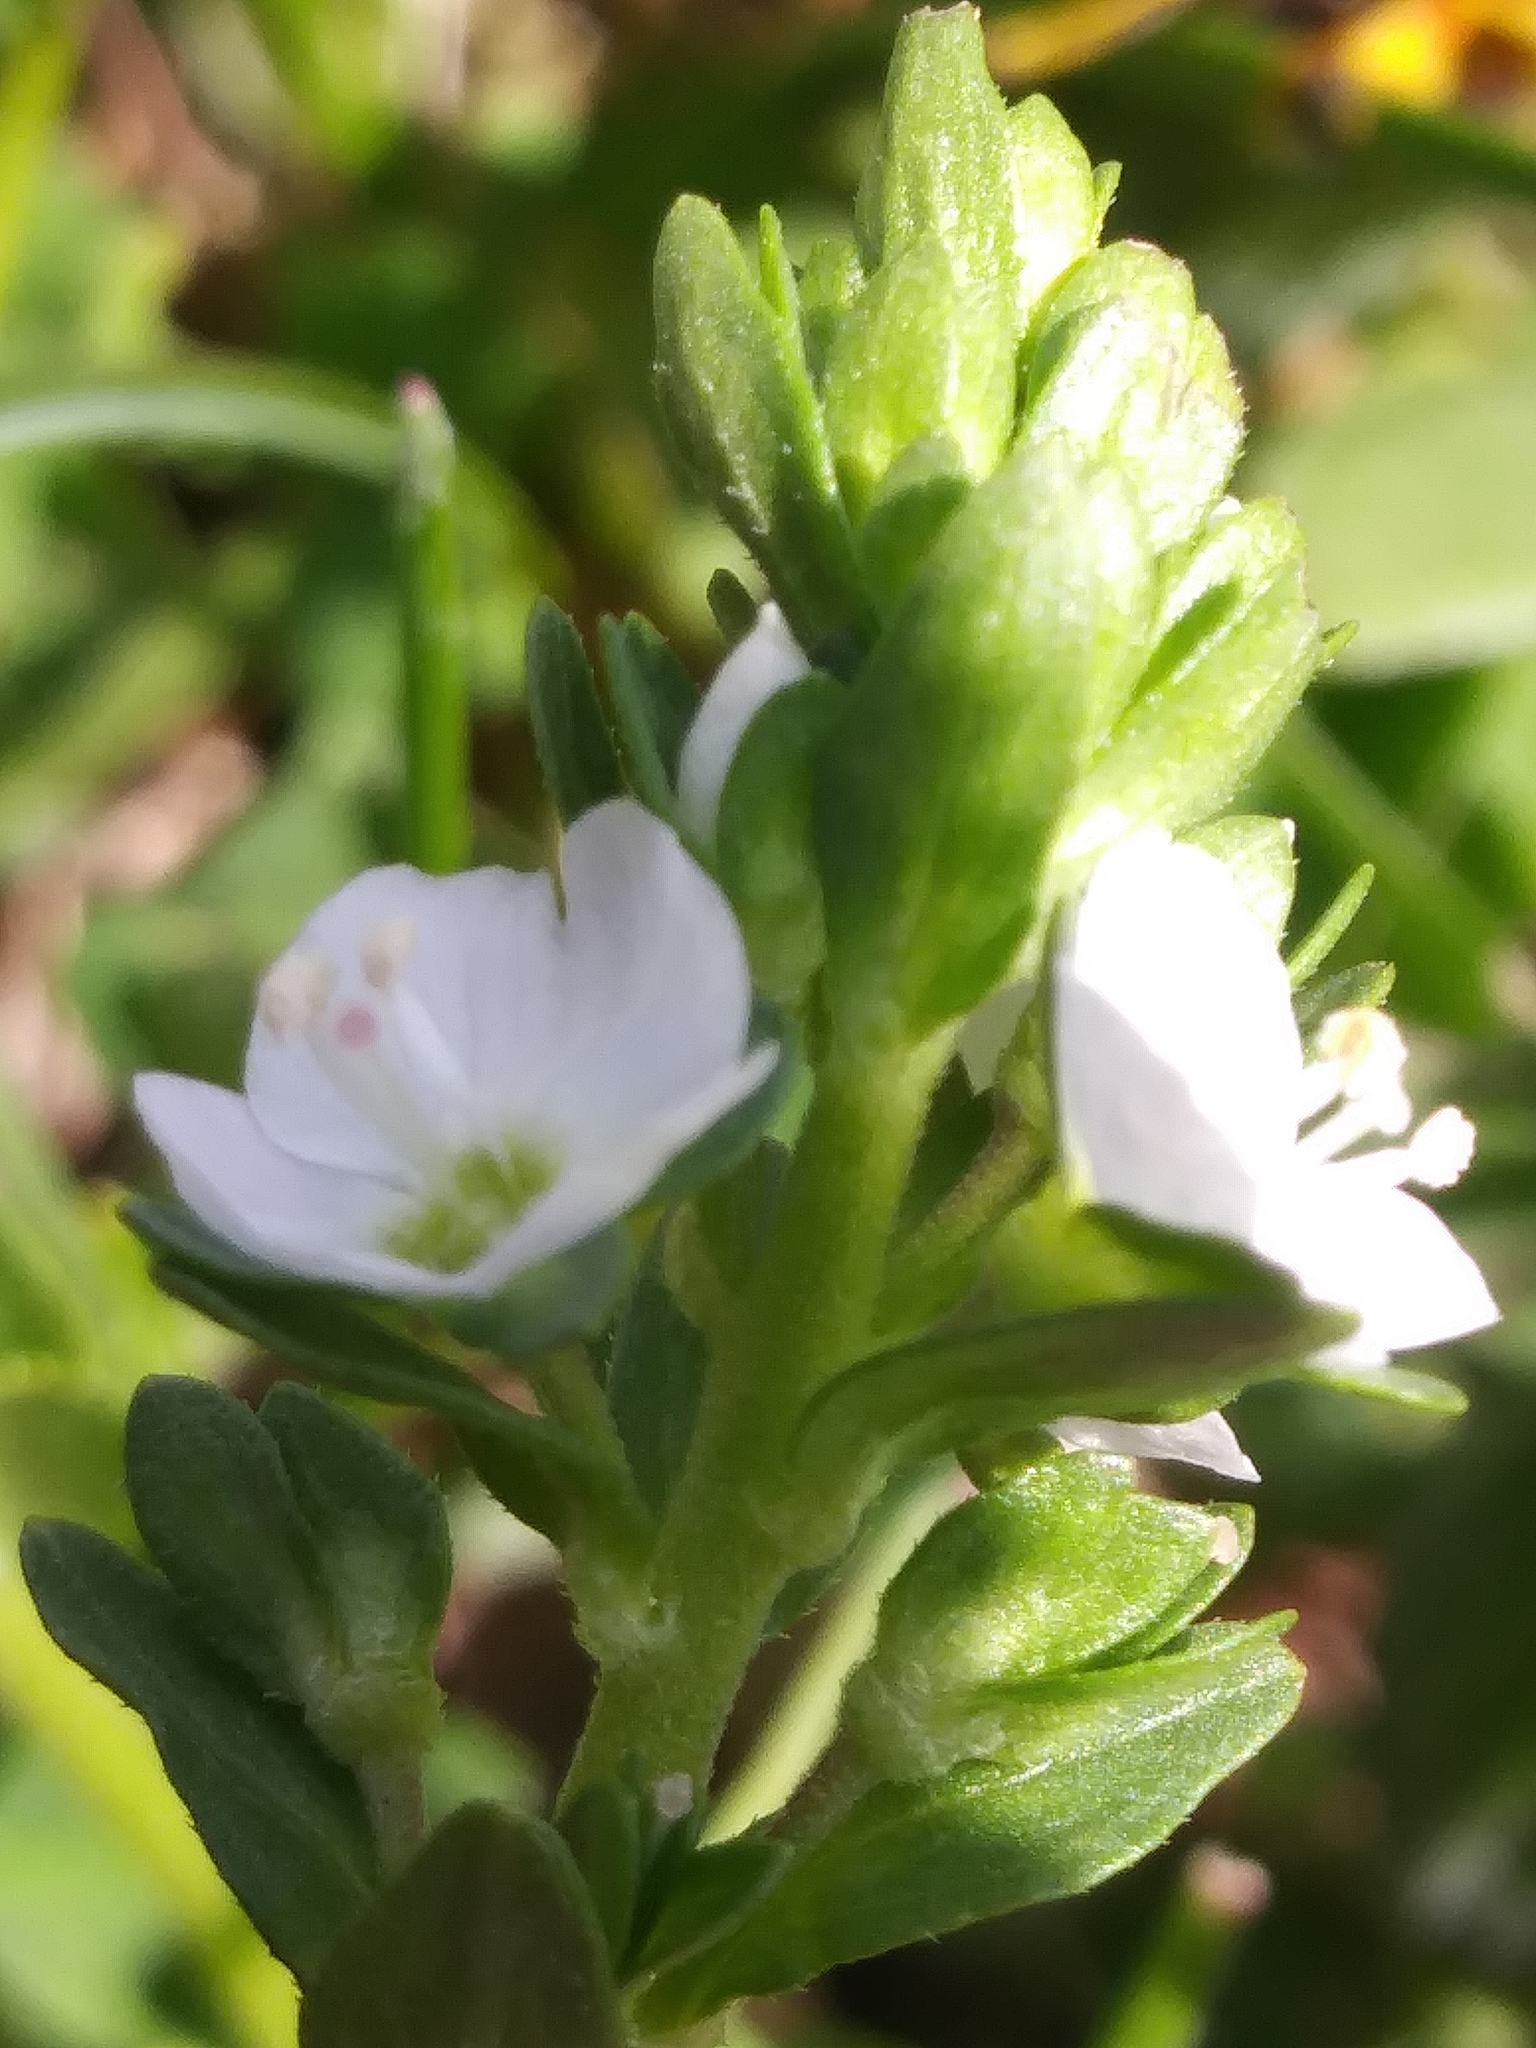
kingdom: Plantae
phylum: Tracheophyta
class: Magnoliopsida
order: Lamiales
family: Plantaginaceae
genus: Veronica
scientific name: Veronica serpyllifolia
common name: Thyme-leaved speedwell
